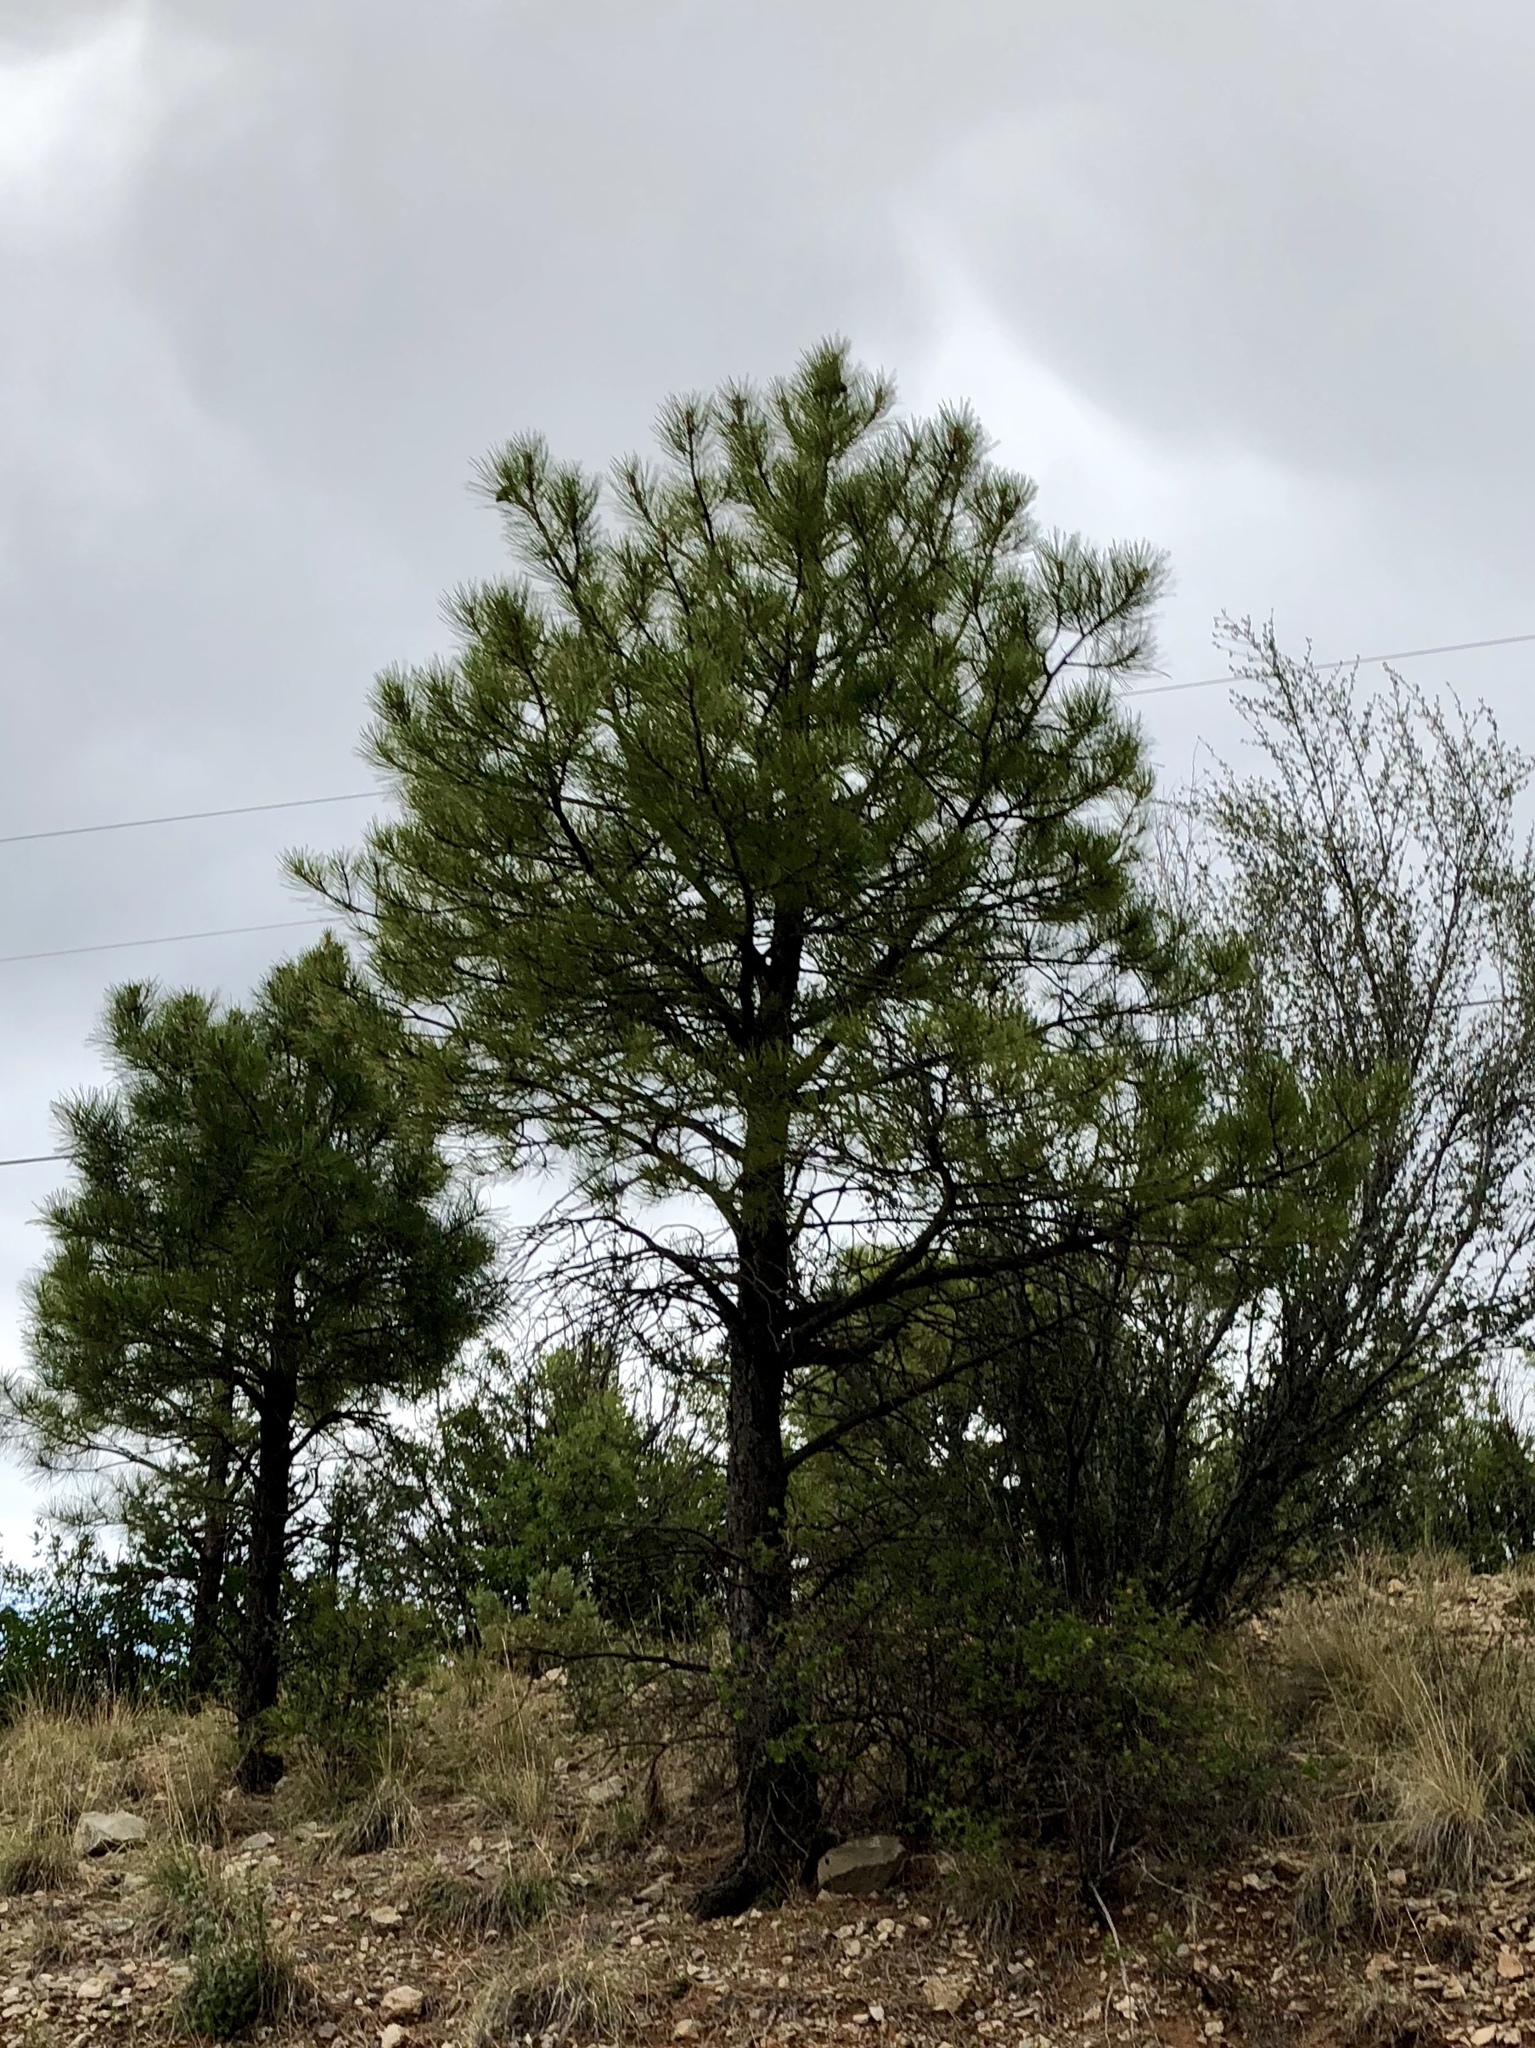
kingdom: Plantae
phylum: Tracheophyta
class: Pinopsida
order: Pinales
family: Pinaceae
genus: Pinus
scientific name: Pinus ponderosa
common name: Western yellow-pine
